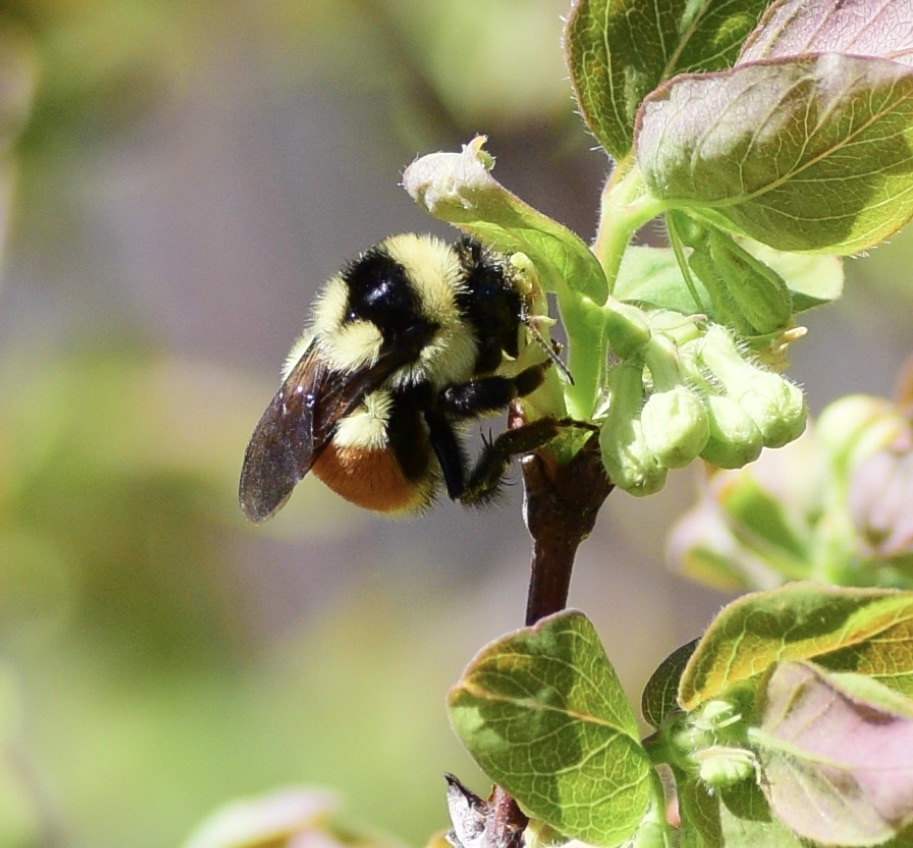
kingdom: Animalia
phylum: Arthropoda
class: Insecta
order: Hymenoptera
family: Apidae
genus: Bombus
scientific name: Bombus ternarius
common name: Tri-colored bumble bee
